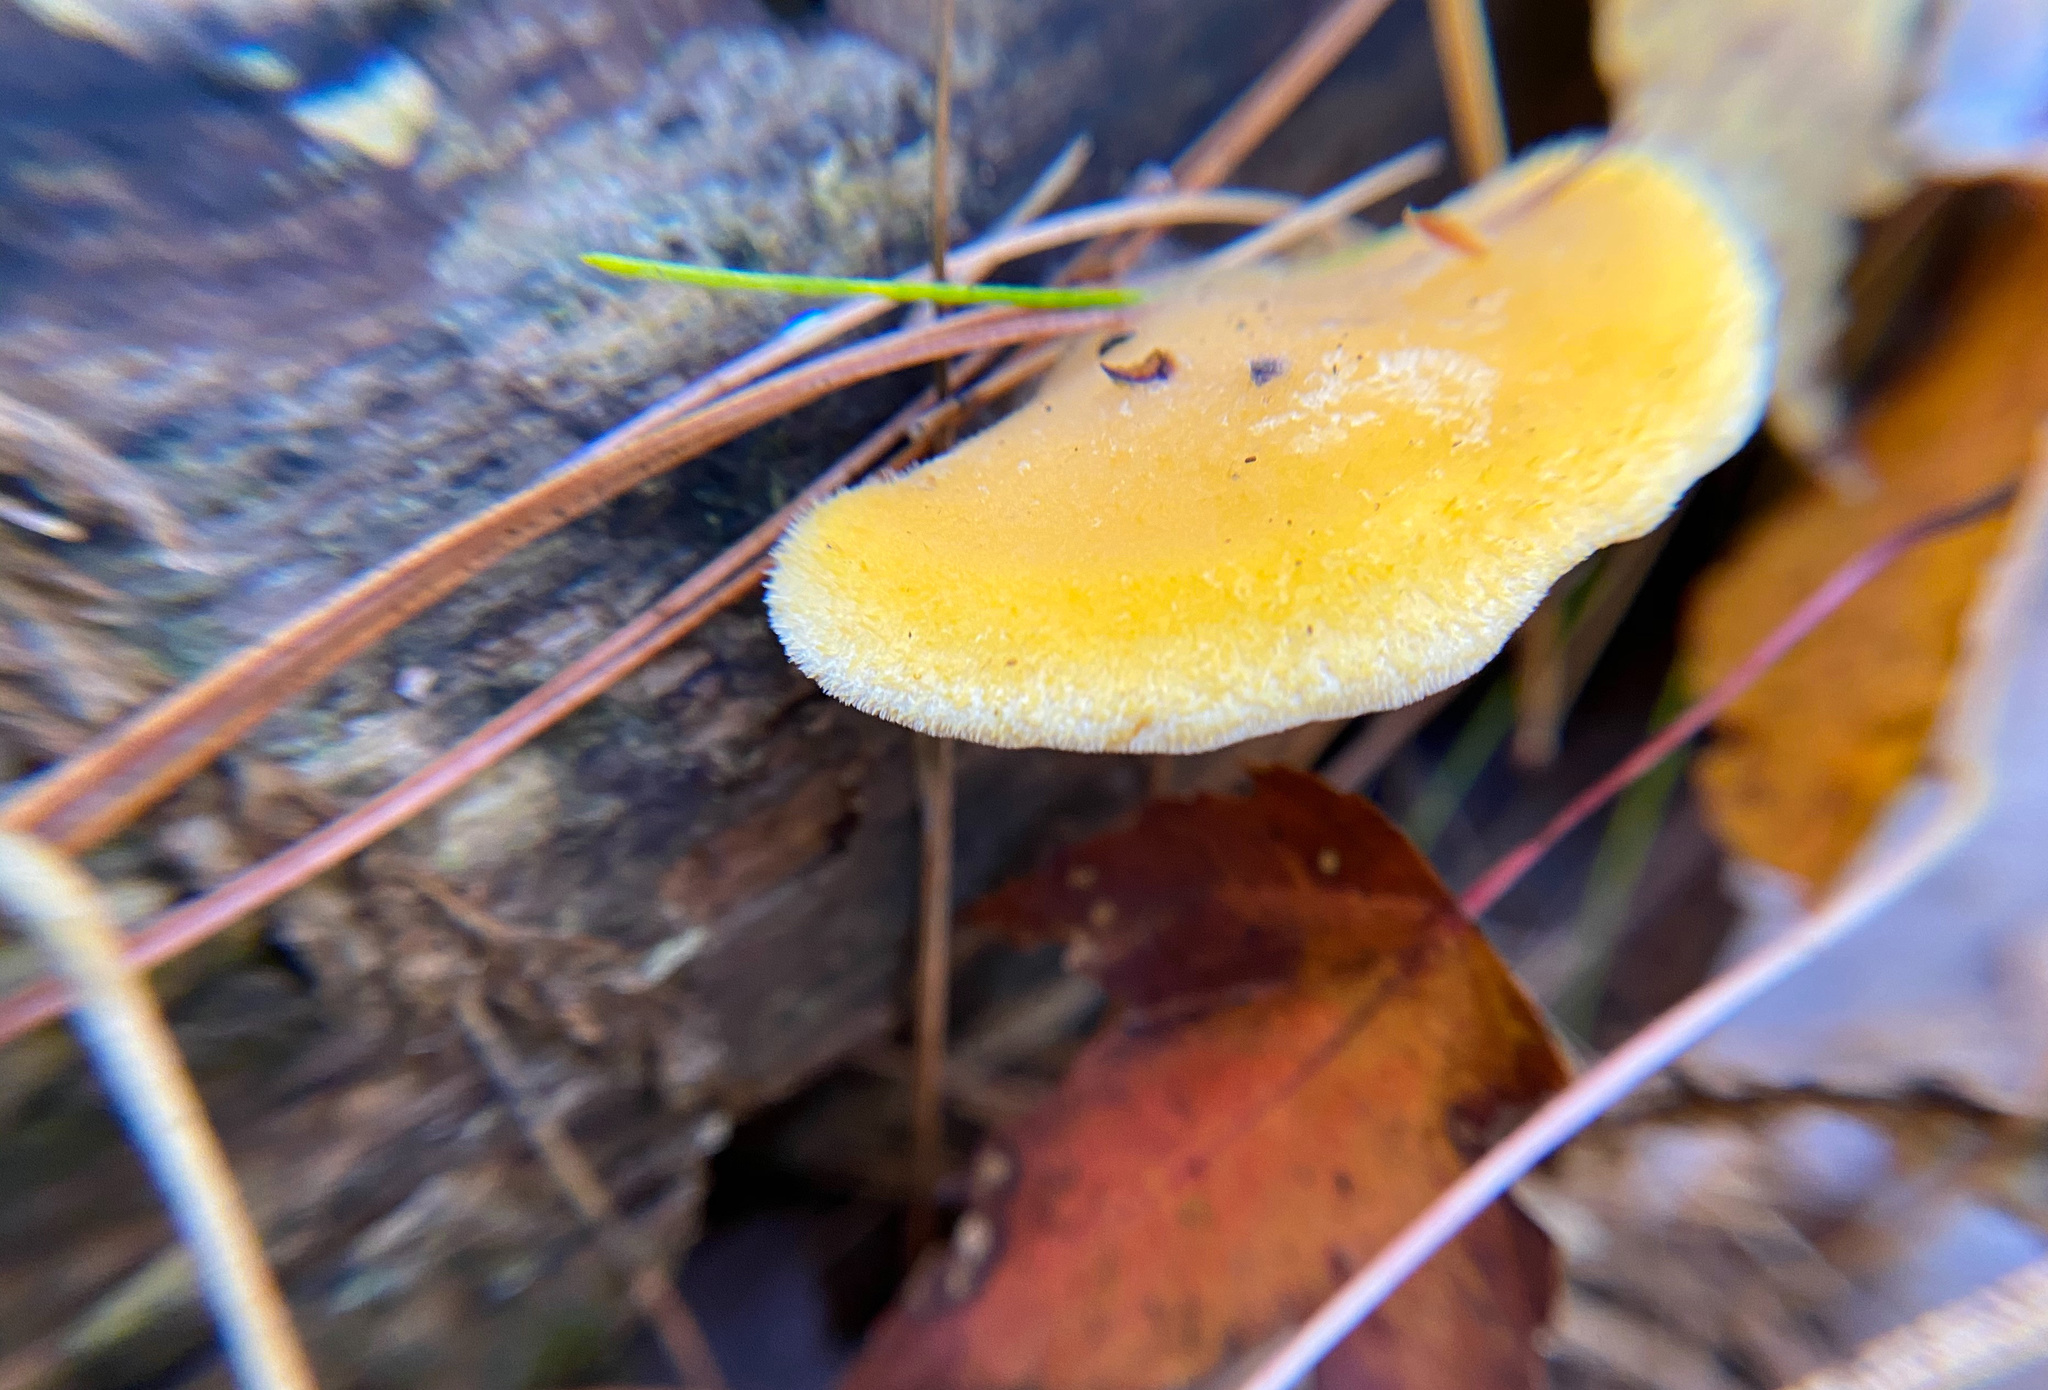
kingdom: Fungi
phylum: Basidiomycota
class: Agaricomycetes
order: Agaricales
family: Phyllotopsidaceae
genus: Phyllotopsis
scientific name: Phyllotopsis nidulans
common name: Orange mock oyster
